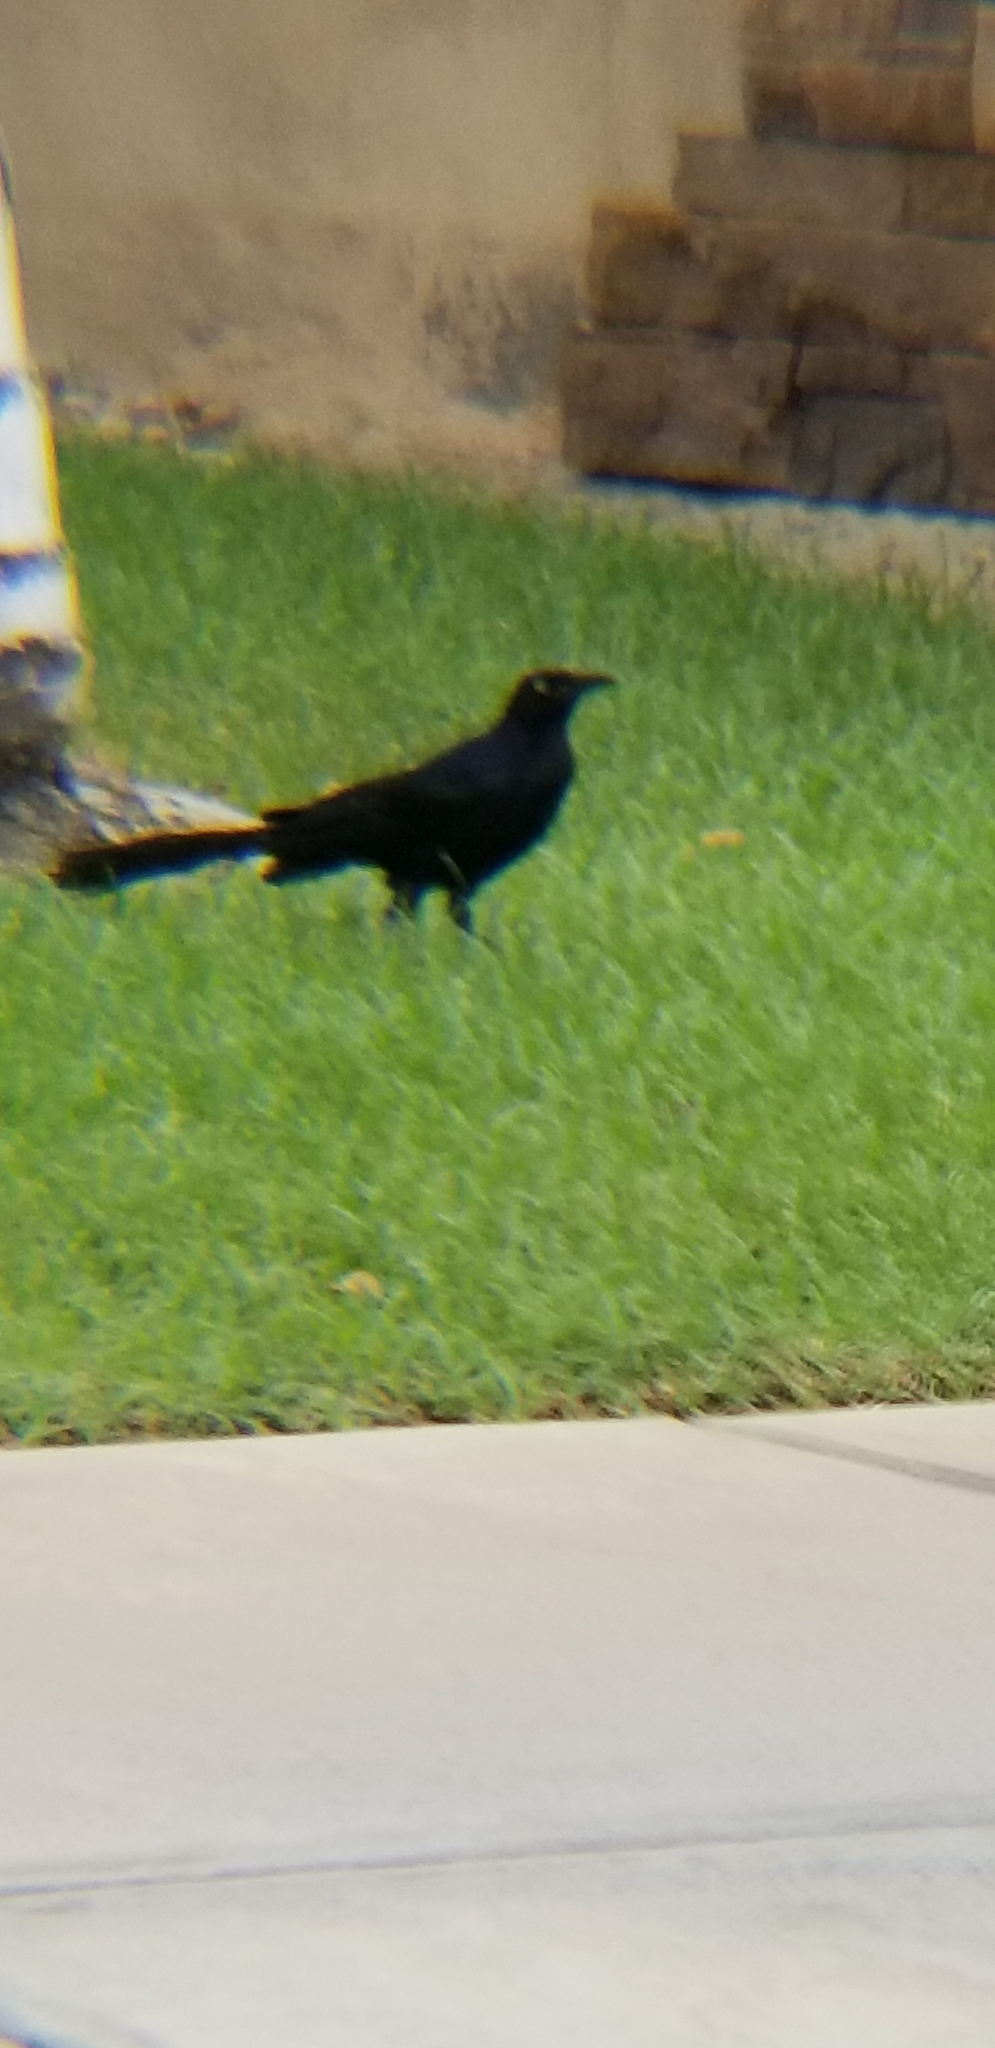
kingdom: Animalia
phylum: Chordata
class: Aves
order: Passeriformes
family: Icteridae
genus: Quiscalus
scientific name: Quiscalus mexicanus
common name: Great-tailed grackle
